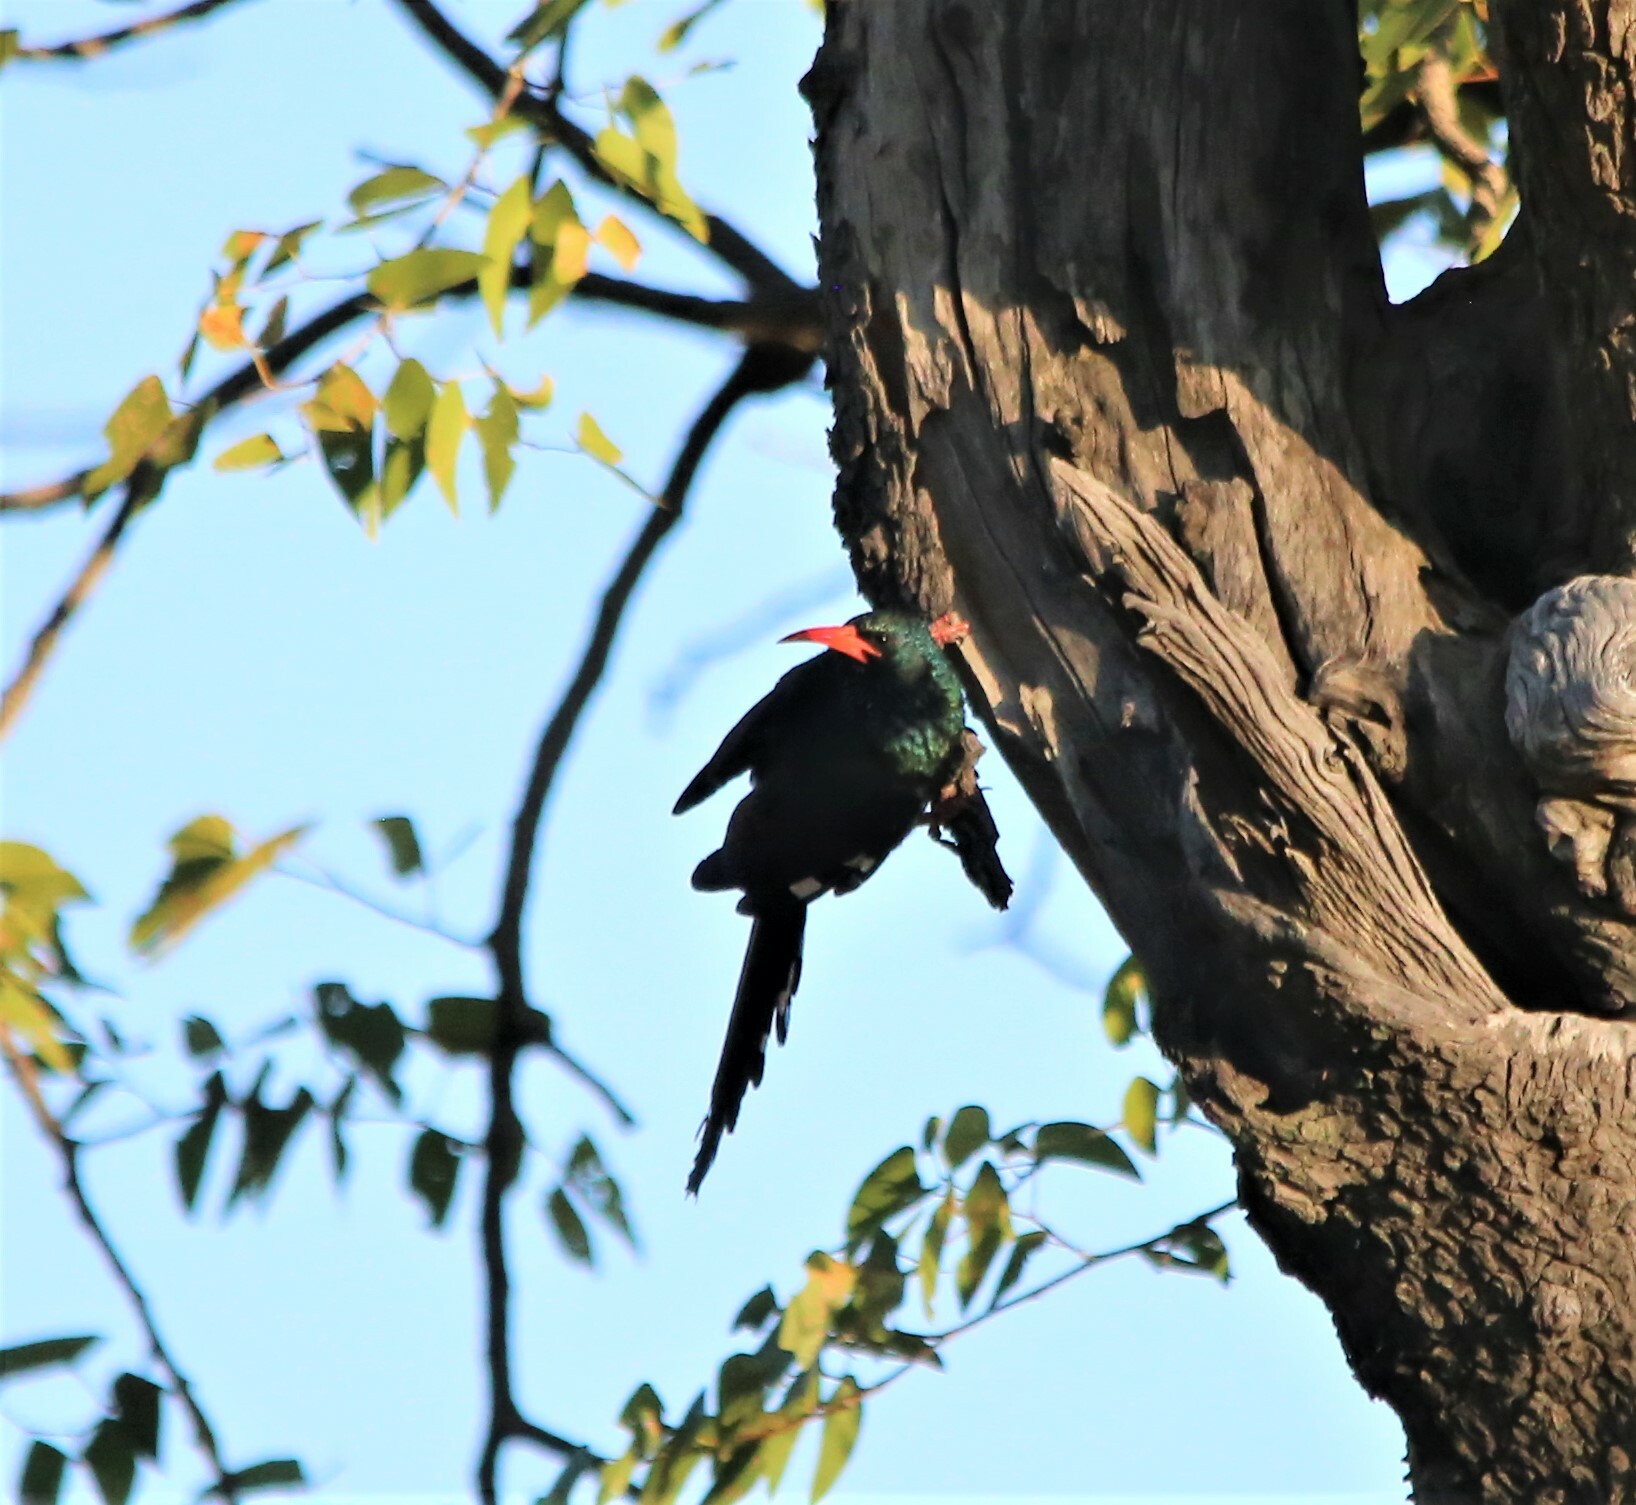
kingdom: Animalia
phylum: Chordata
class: Aves
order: Bucerotiformes
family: Phoeniculidae
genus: Phoeniculus
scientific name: Phoeniculus purpureus
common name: Green woodhoopoe
